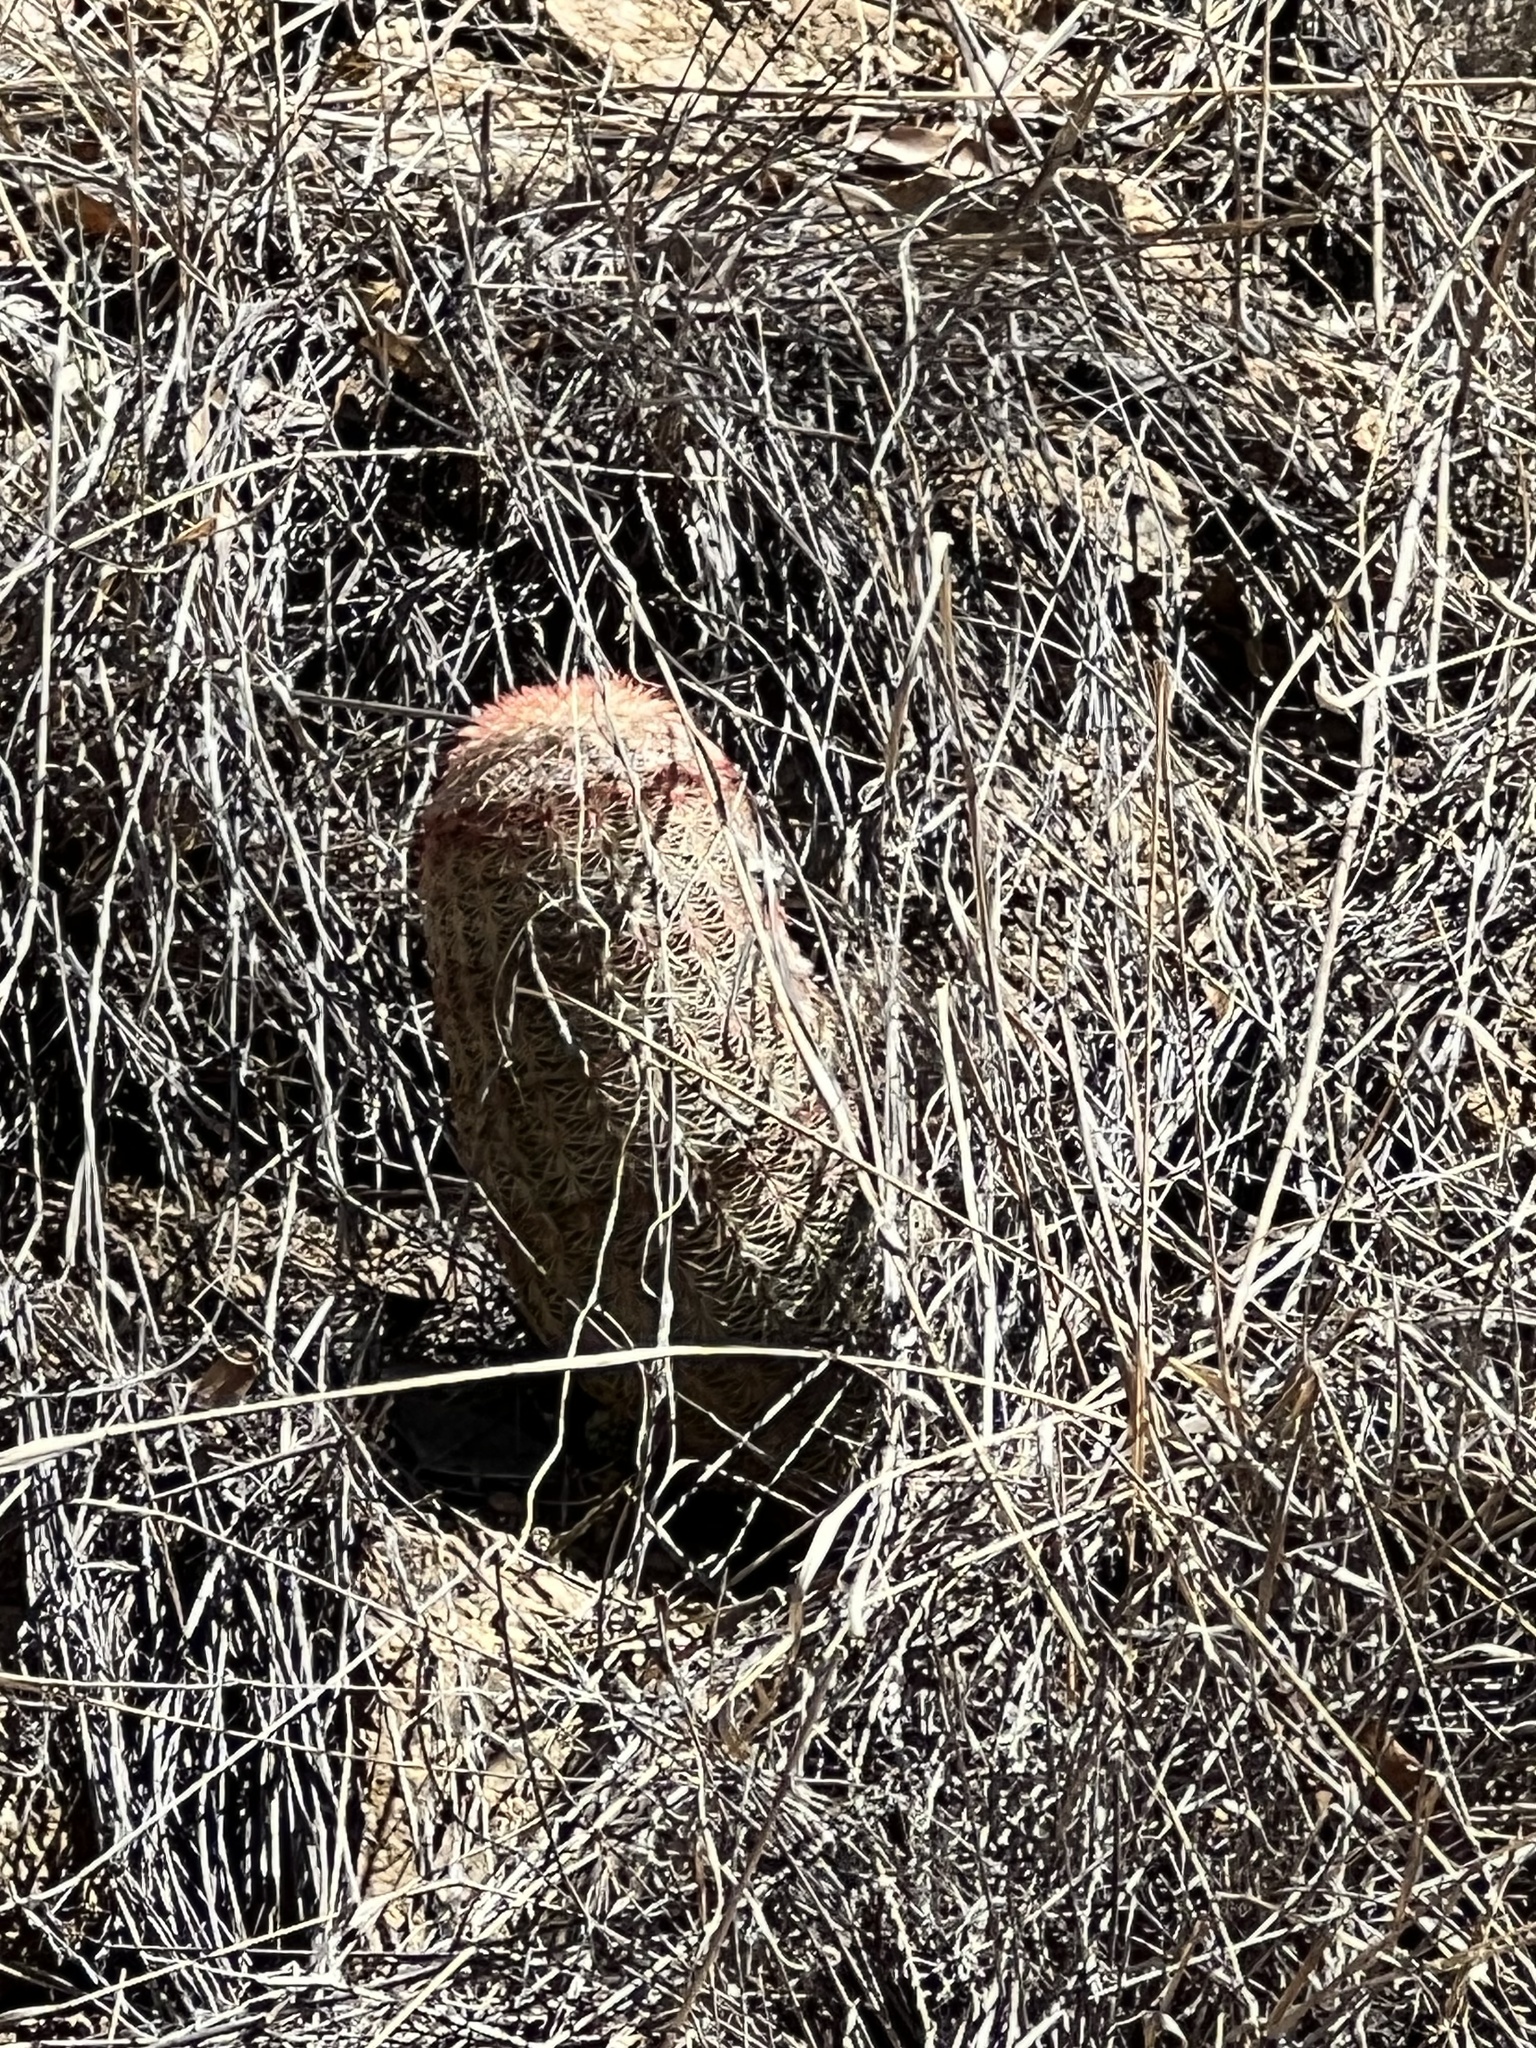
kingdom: Plantae
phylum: Tracheophyta
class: Magnoliopsida
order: Caryophyllales
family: Cactaceae
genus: Echinocereus
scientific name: Echinocereus rigidissimus
